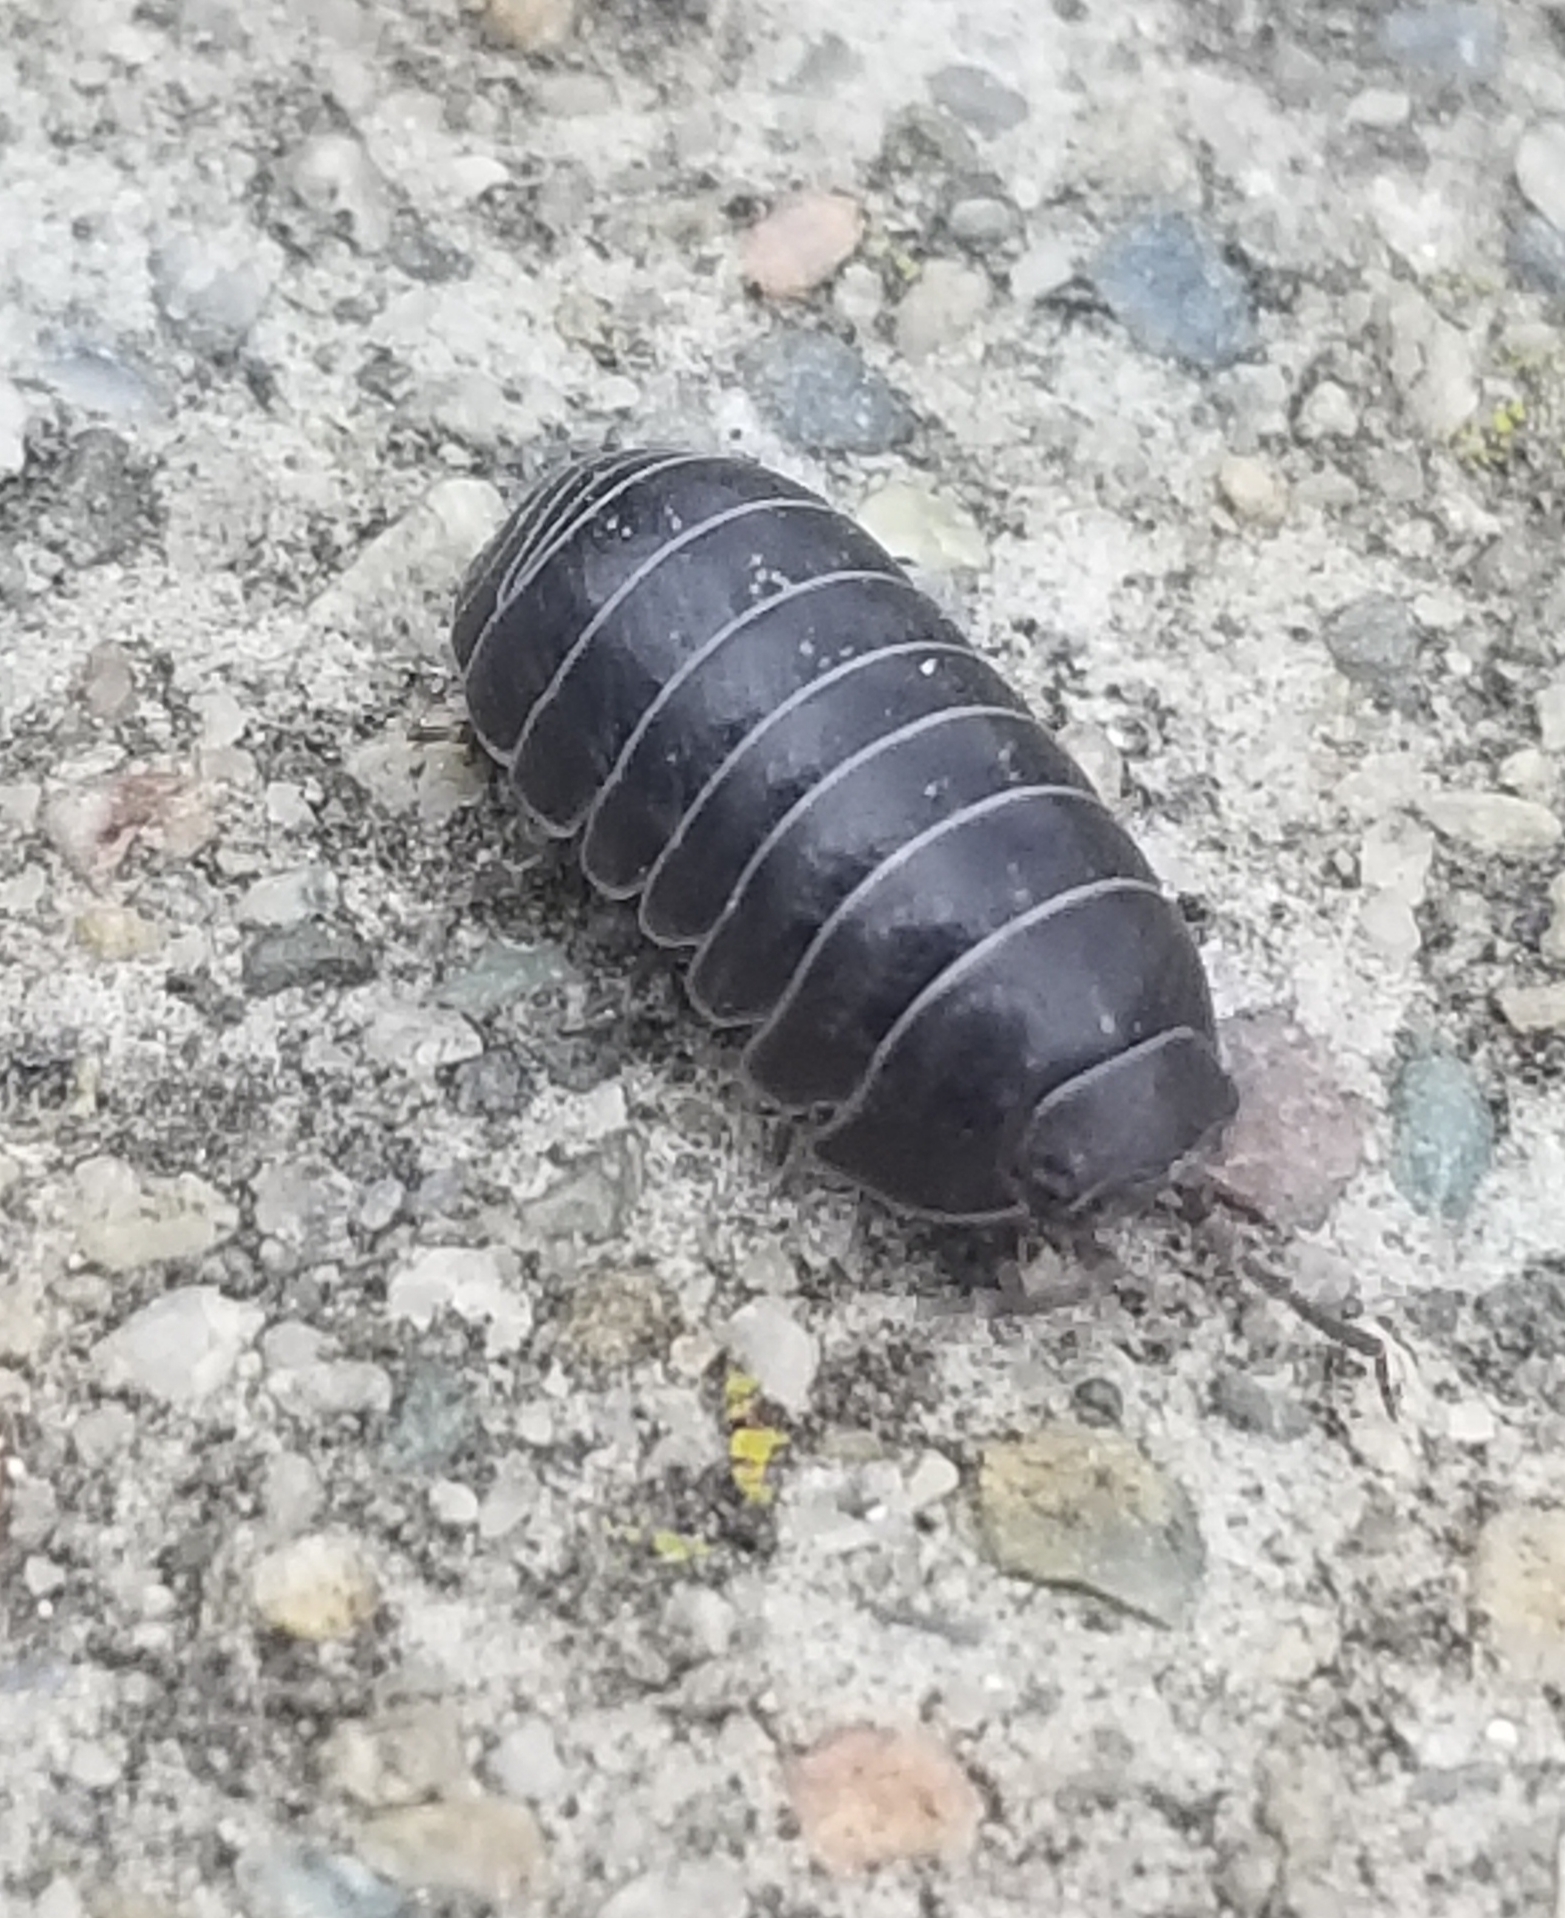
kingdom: Animalia
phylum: Arthropoda
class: Malacostraca
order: Isopoda
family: Armadillidiidae
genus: Armadillidium
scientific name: Armadillidium vulgare
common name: Common pill woodlouse
